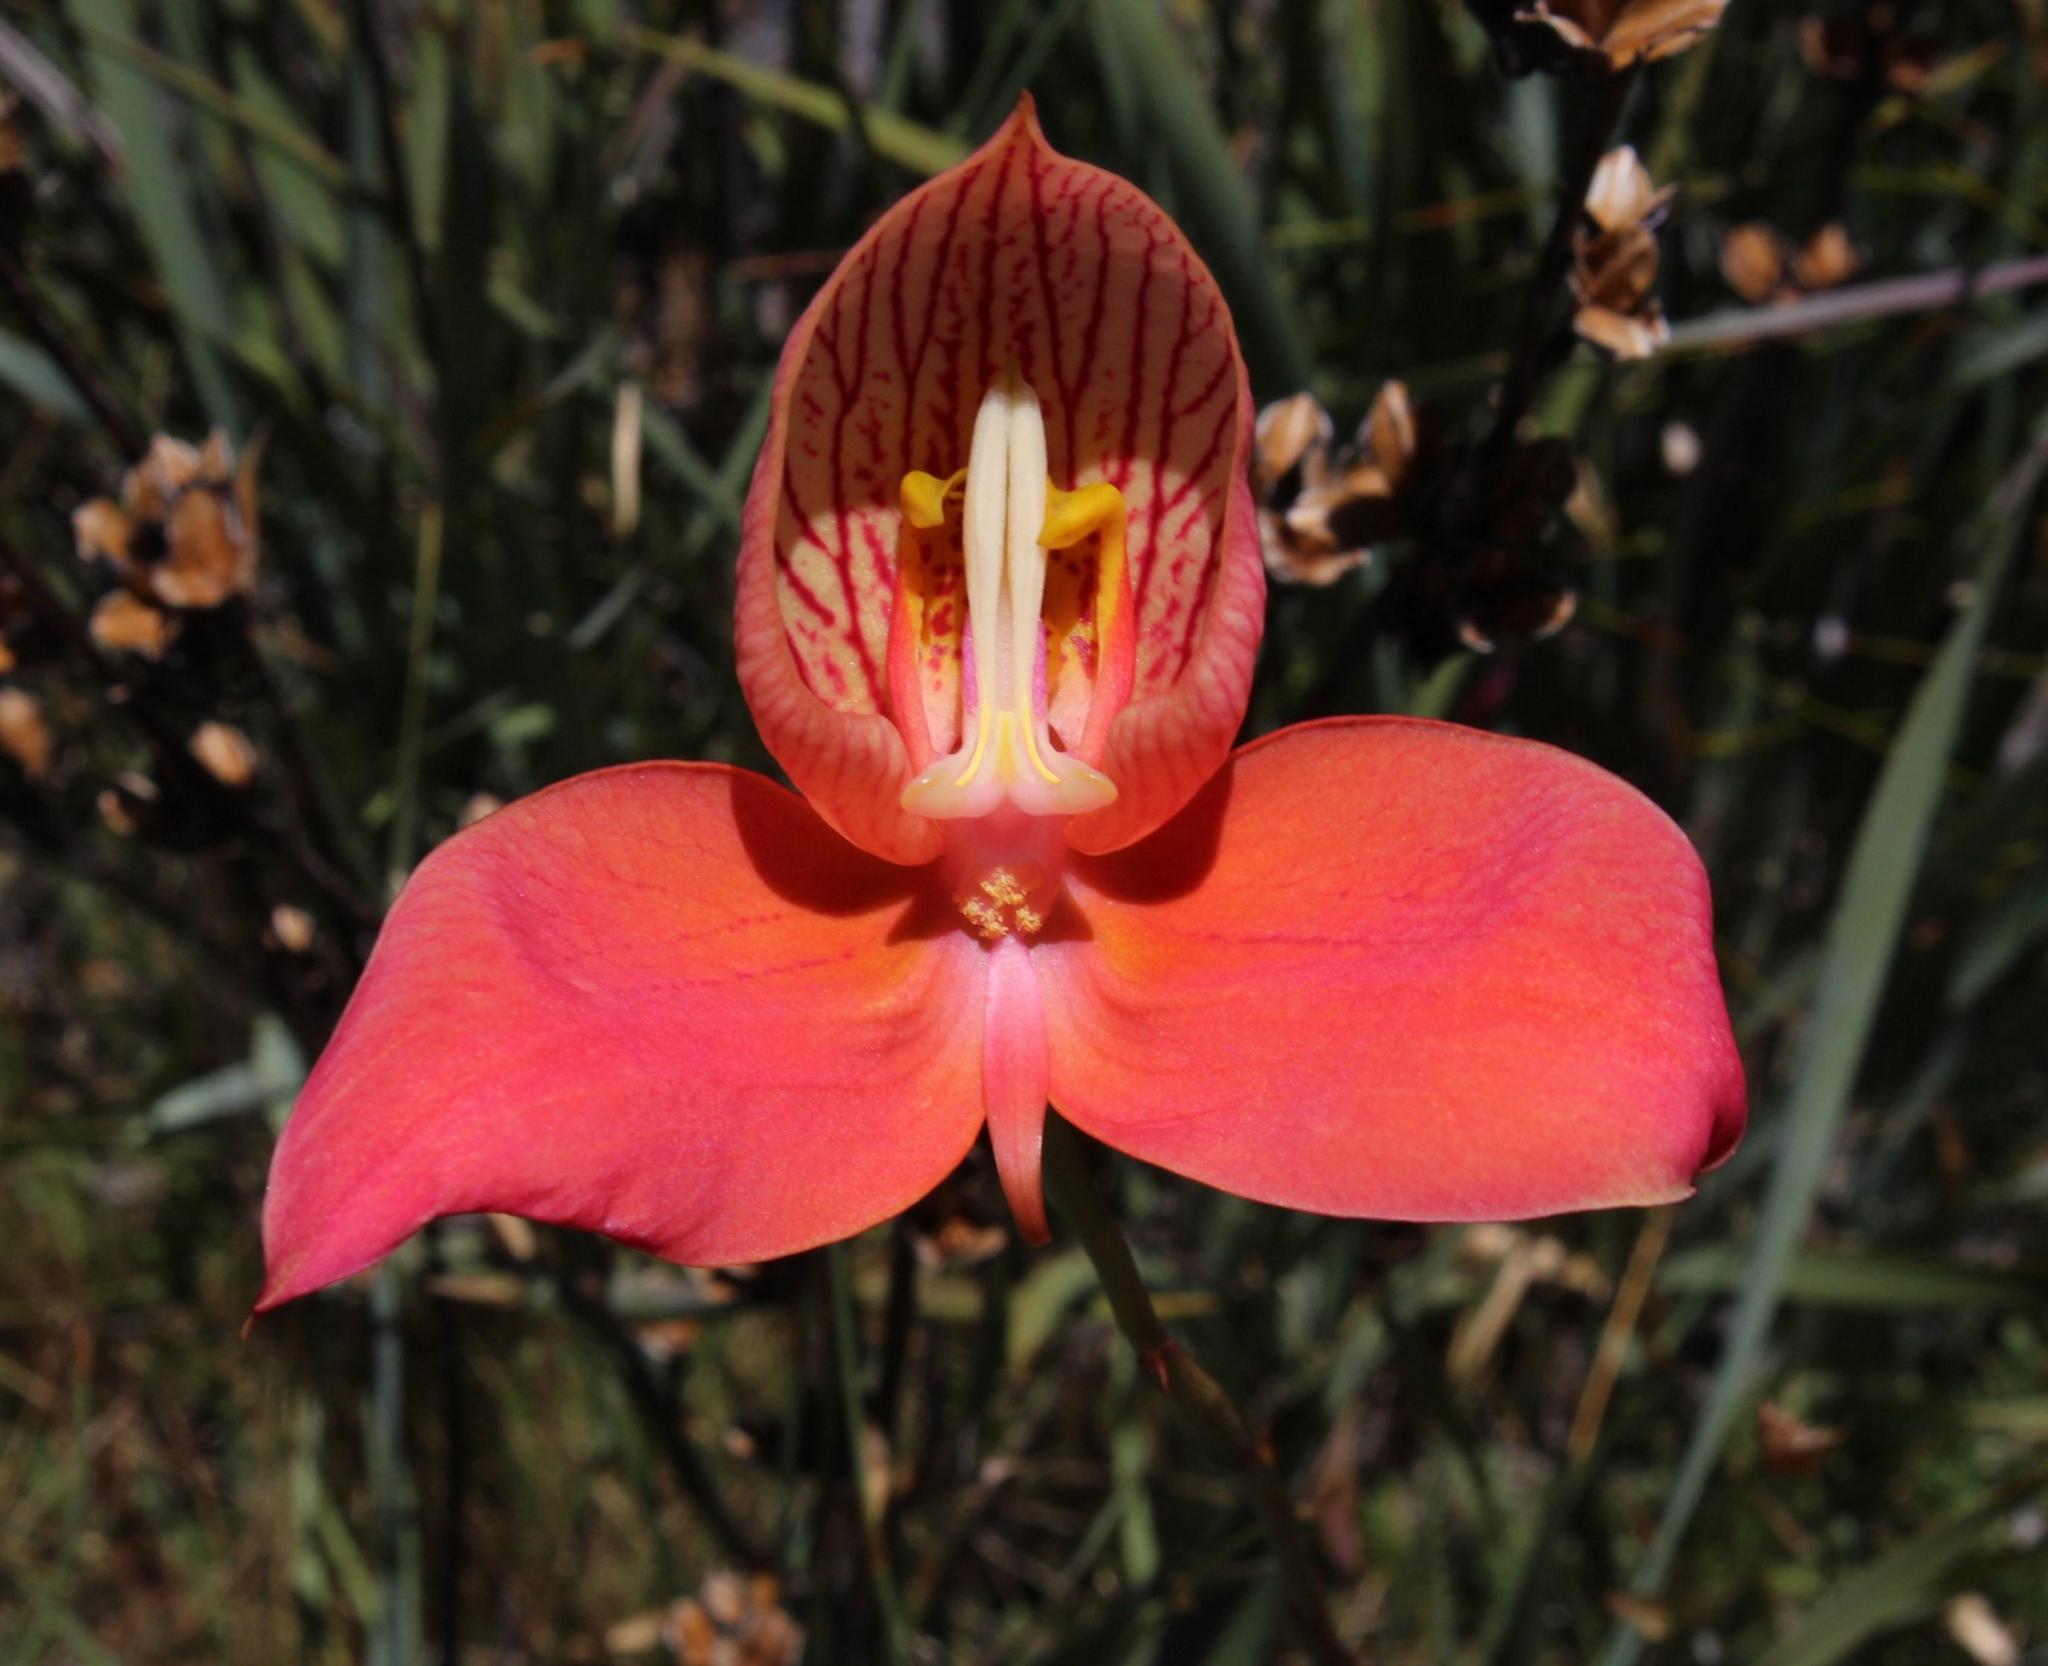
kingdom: Plantae
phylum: Tracheophyta
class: Liliopsida
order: Asparagales
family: Orchidaceae
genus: Disa
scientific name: Disa uniflora
